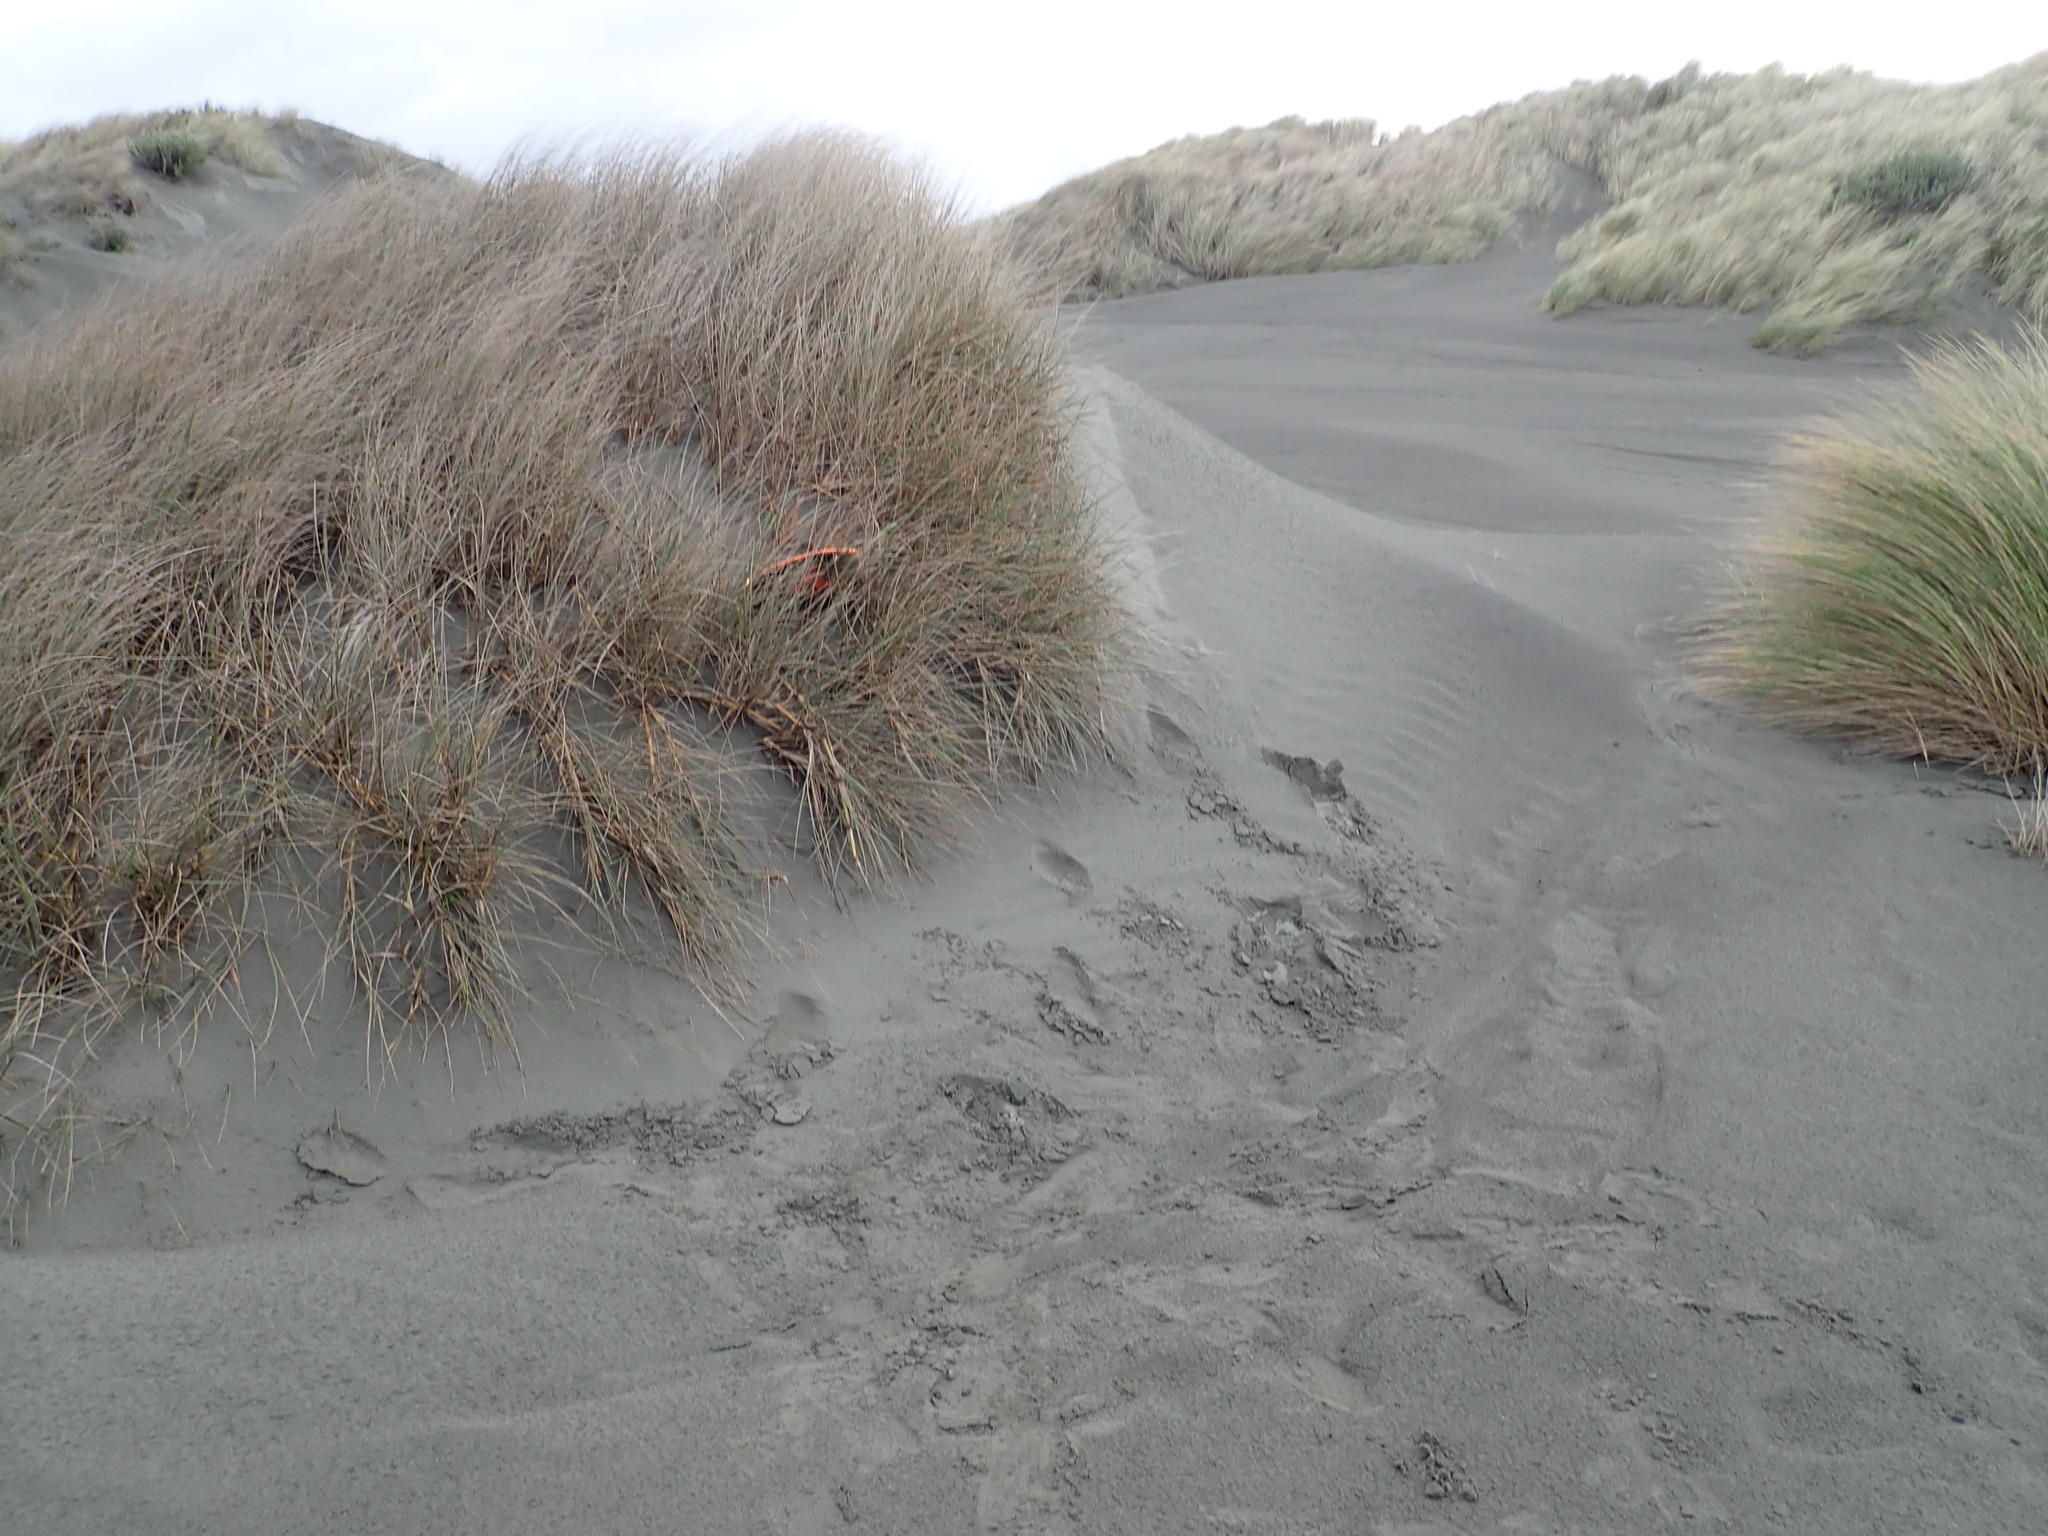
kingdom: Plantae
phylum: Tracheophyta
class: Magnoliopsida
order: Asterales
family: Asteraceae
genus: Sonchus
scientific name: Sonchus oleraceus
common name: Common sowthistle
